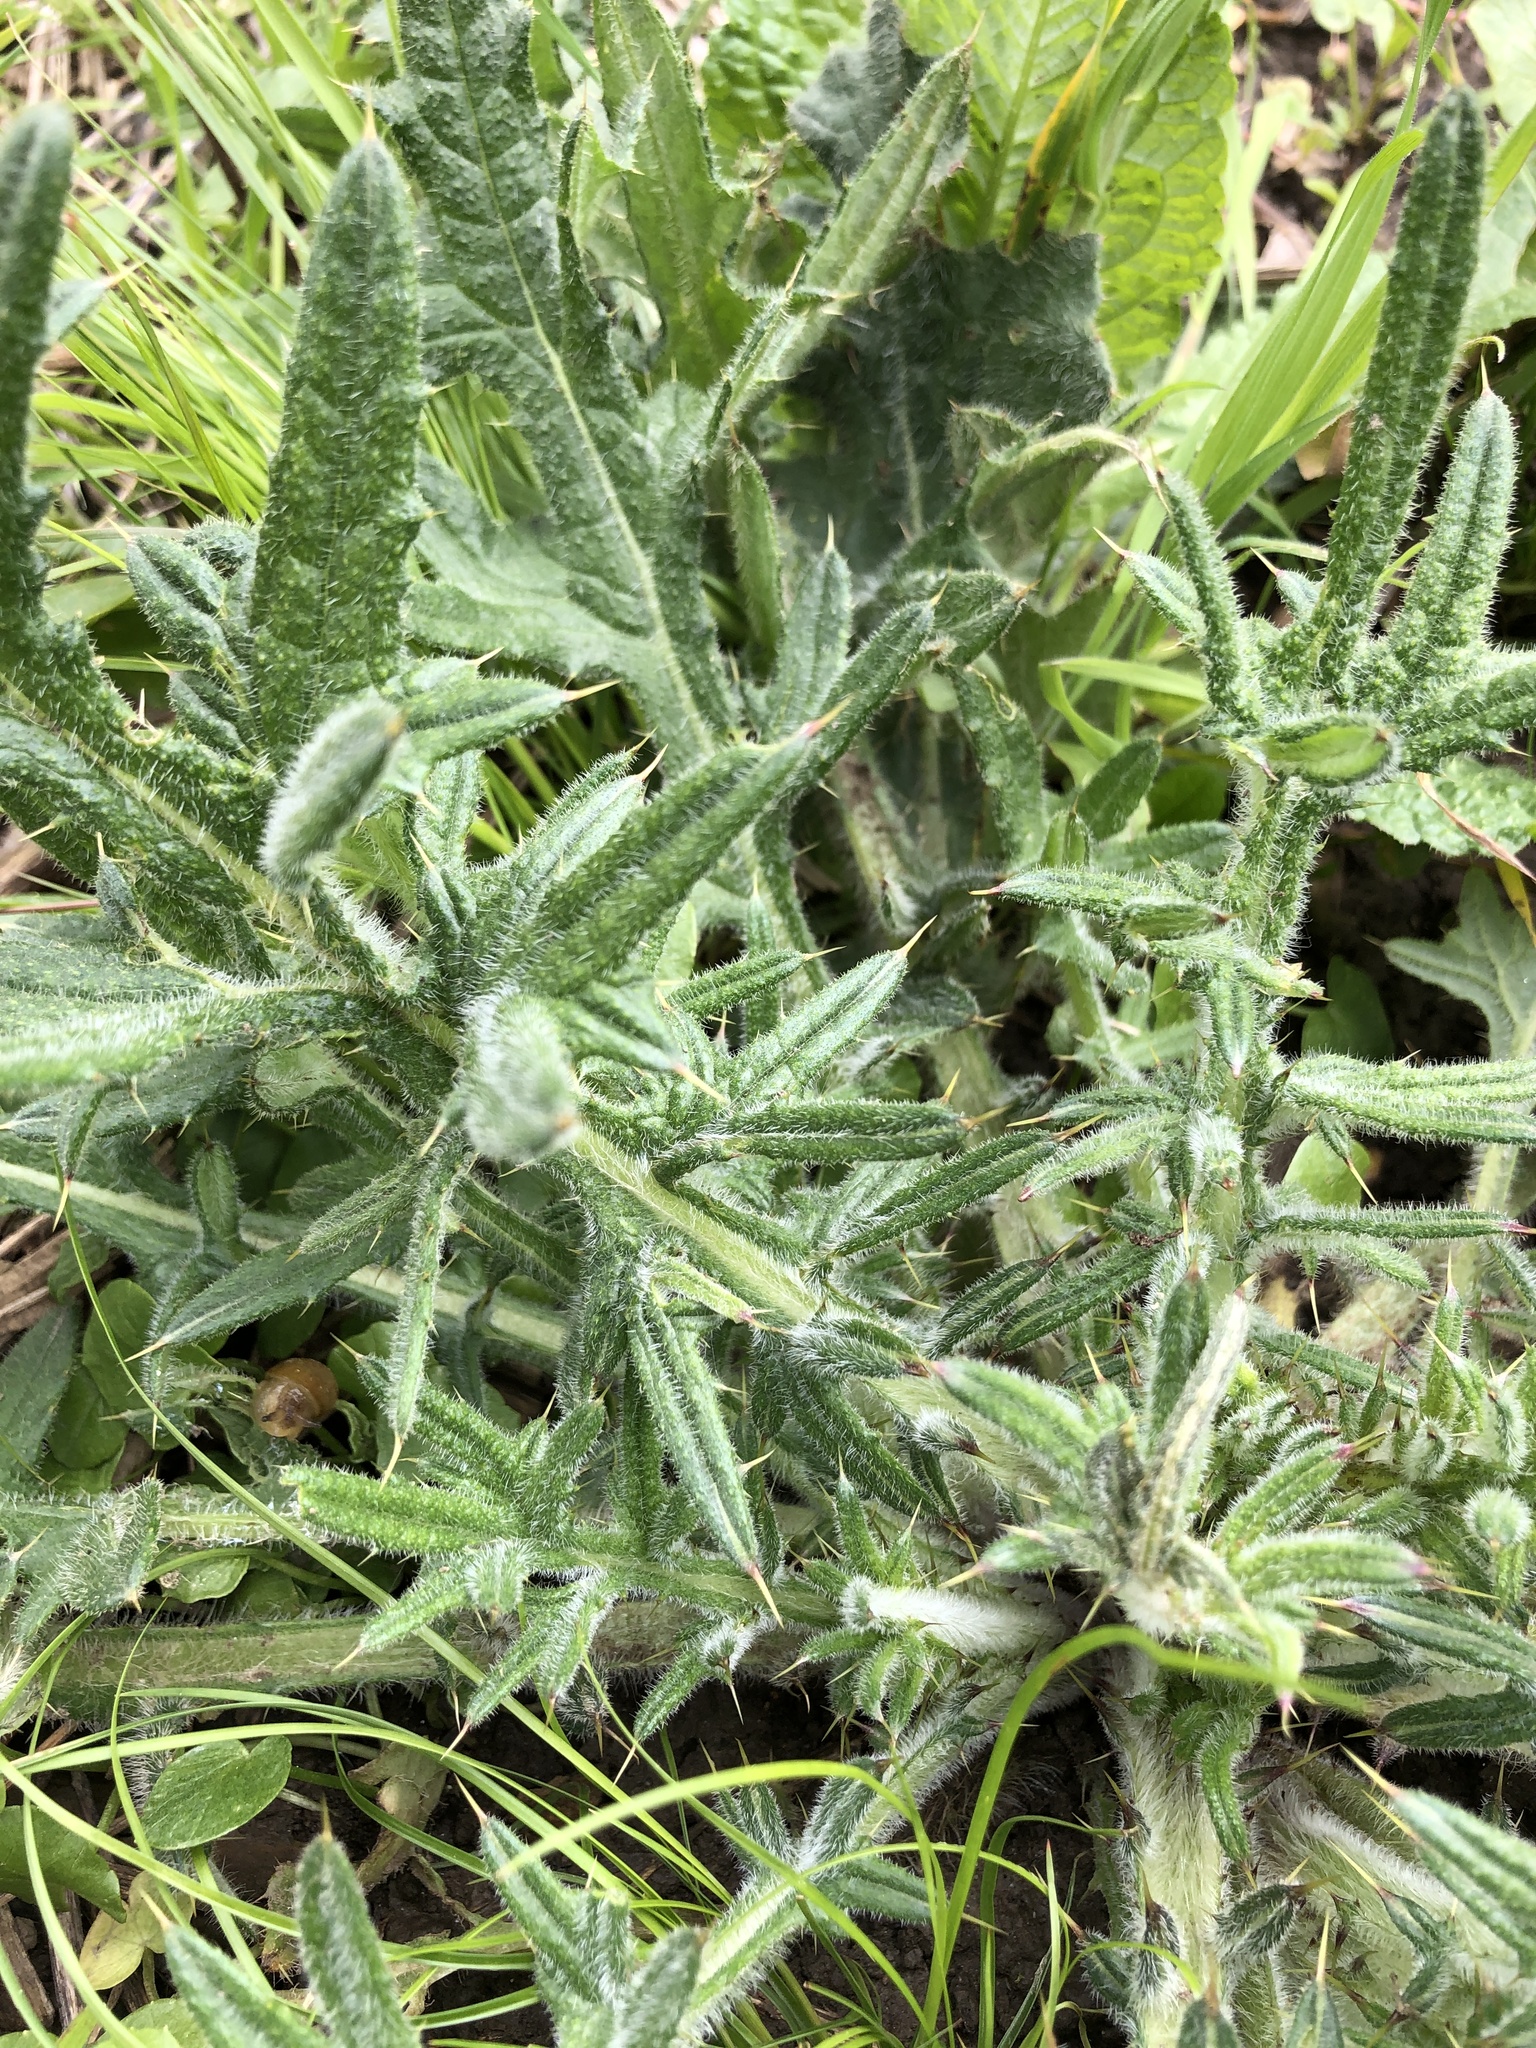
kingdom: Plantae
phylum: Tracheophyta
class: Magnoliopsida
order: Asterales
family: Asteraceae
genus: Cirsium
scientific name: Cirsium vulgare
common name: Bull thistle
